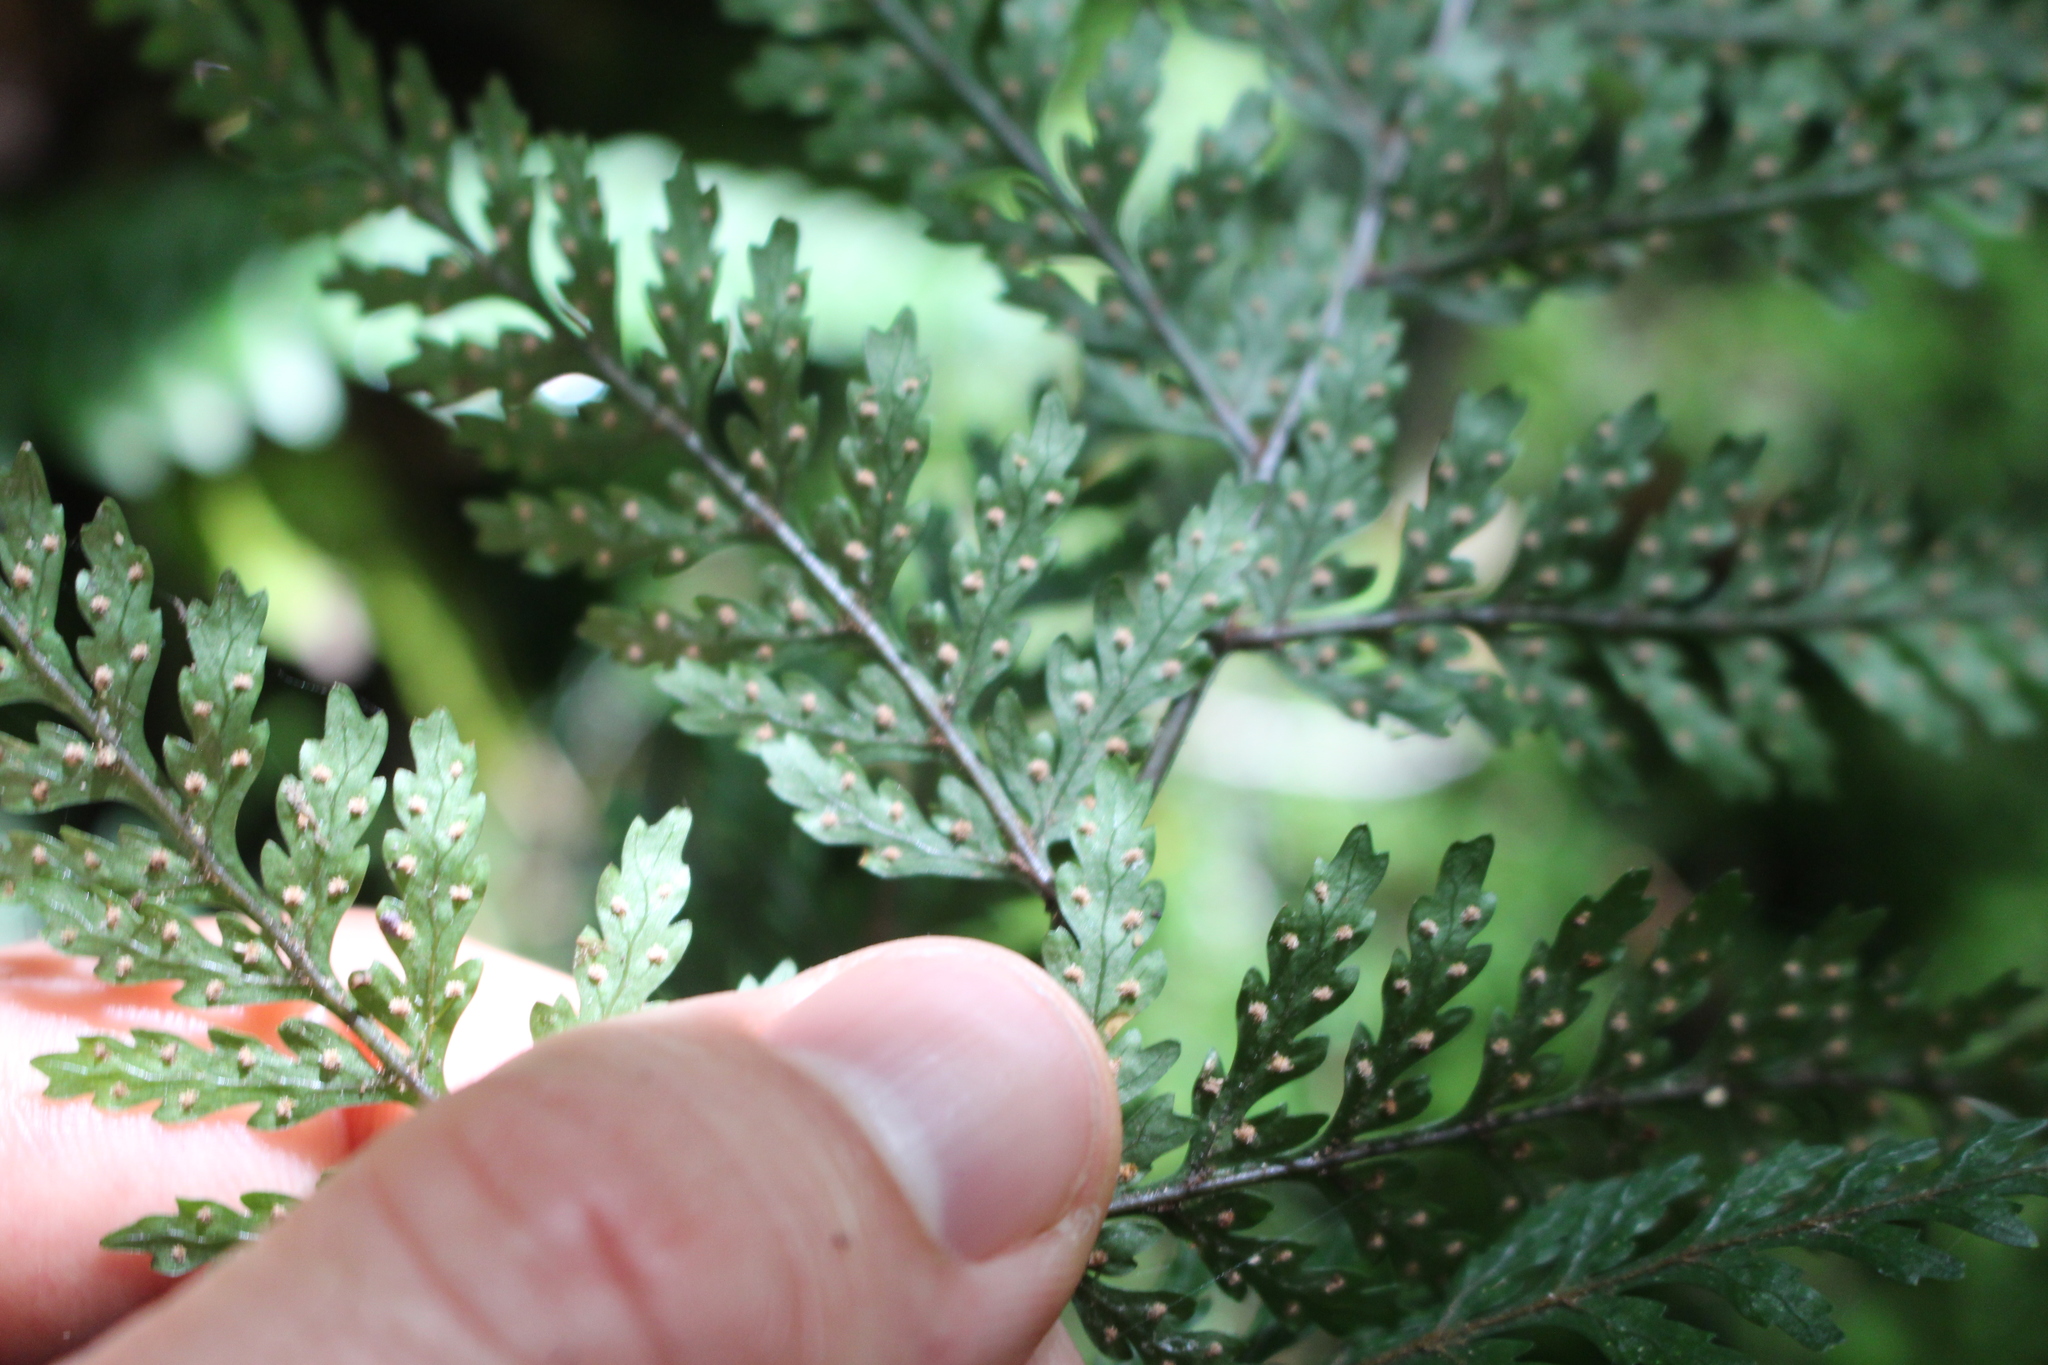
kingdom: Plantae
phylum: Tracheophyta
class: Polypodiopsida
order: Polypodiales
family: Dryopteridaceae
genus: Parapolystichum
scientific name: Parapolystichum glabellum
